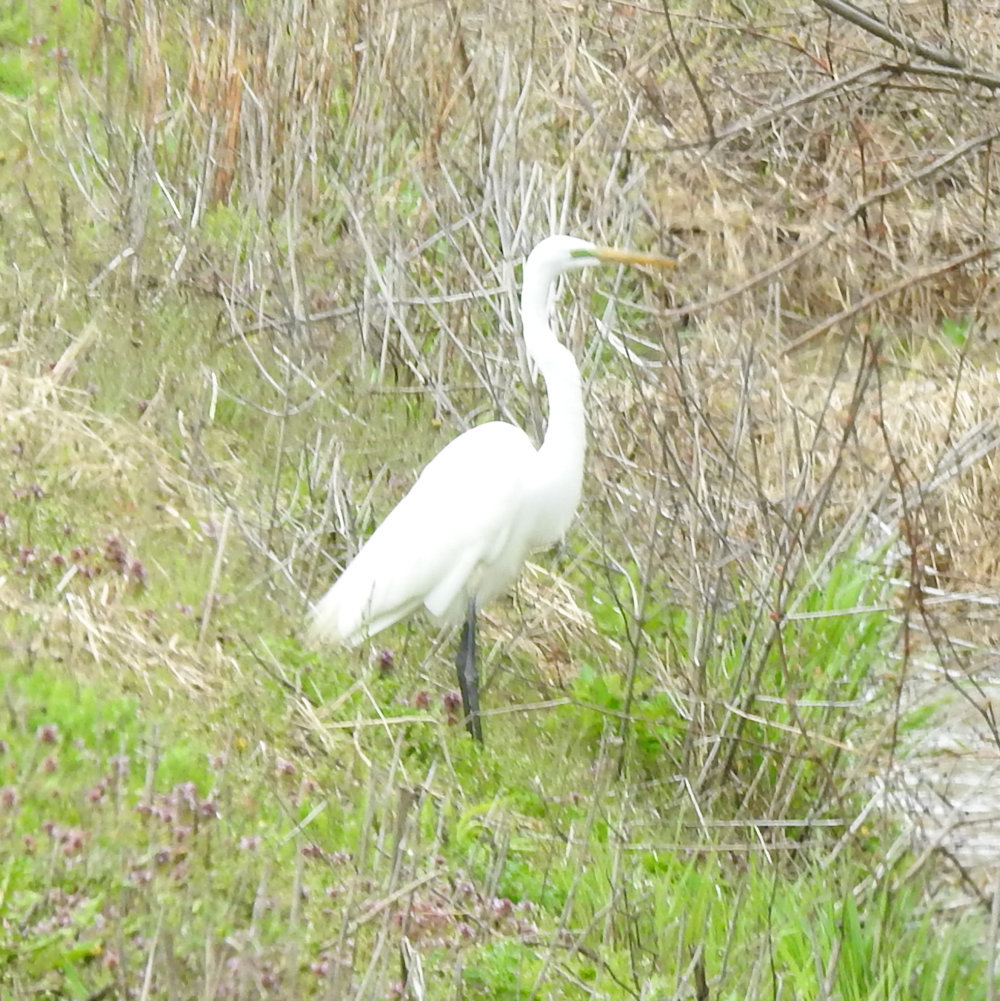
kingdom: Animalia
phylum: Chordata
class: Aves
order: Pelecaniformes
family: Ardeidae
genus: Ardea
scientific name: Ardea alba
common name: Great egret
